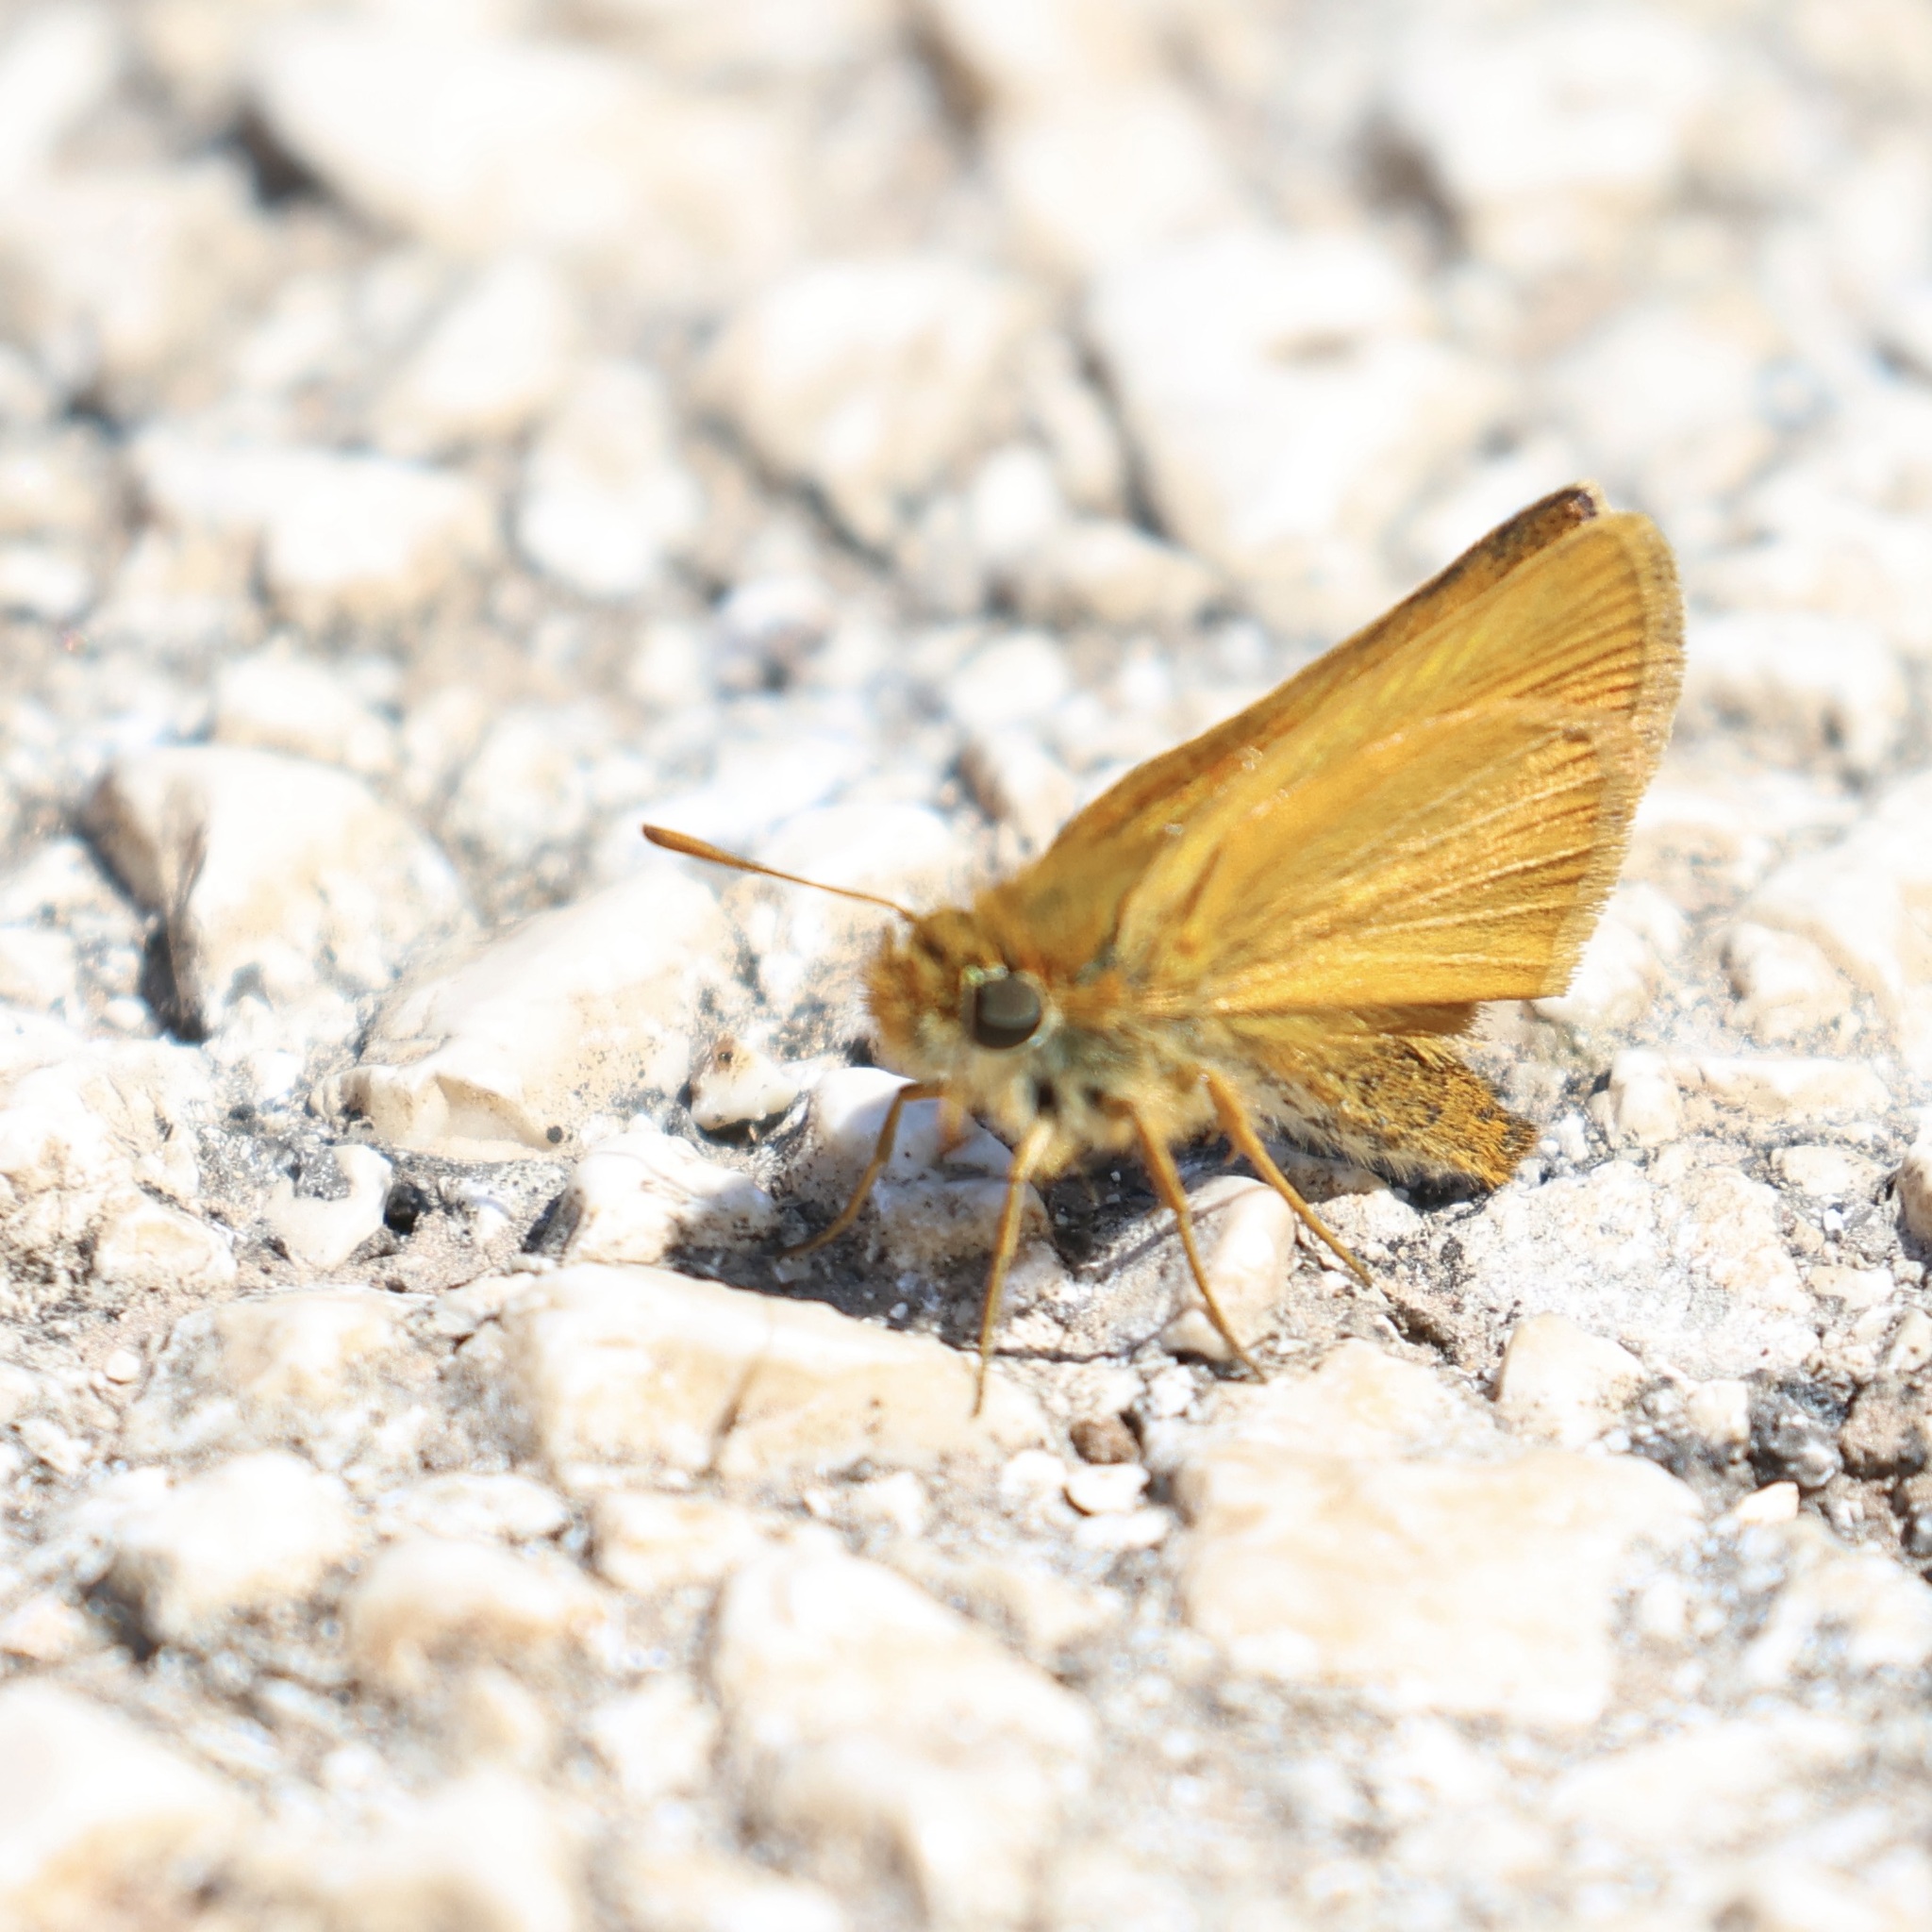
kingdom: Animalia
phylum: Arthropoda
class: Insecta
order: Lepidoptera
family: Hesperiidae
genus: Thymelicus
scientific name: Thymelicus acteon
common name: Lulworth skipper
